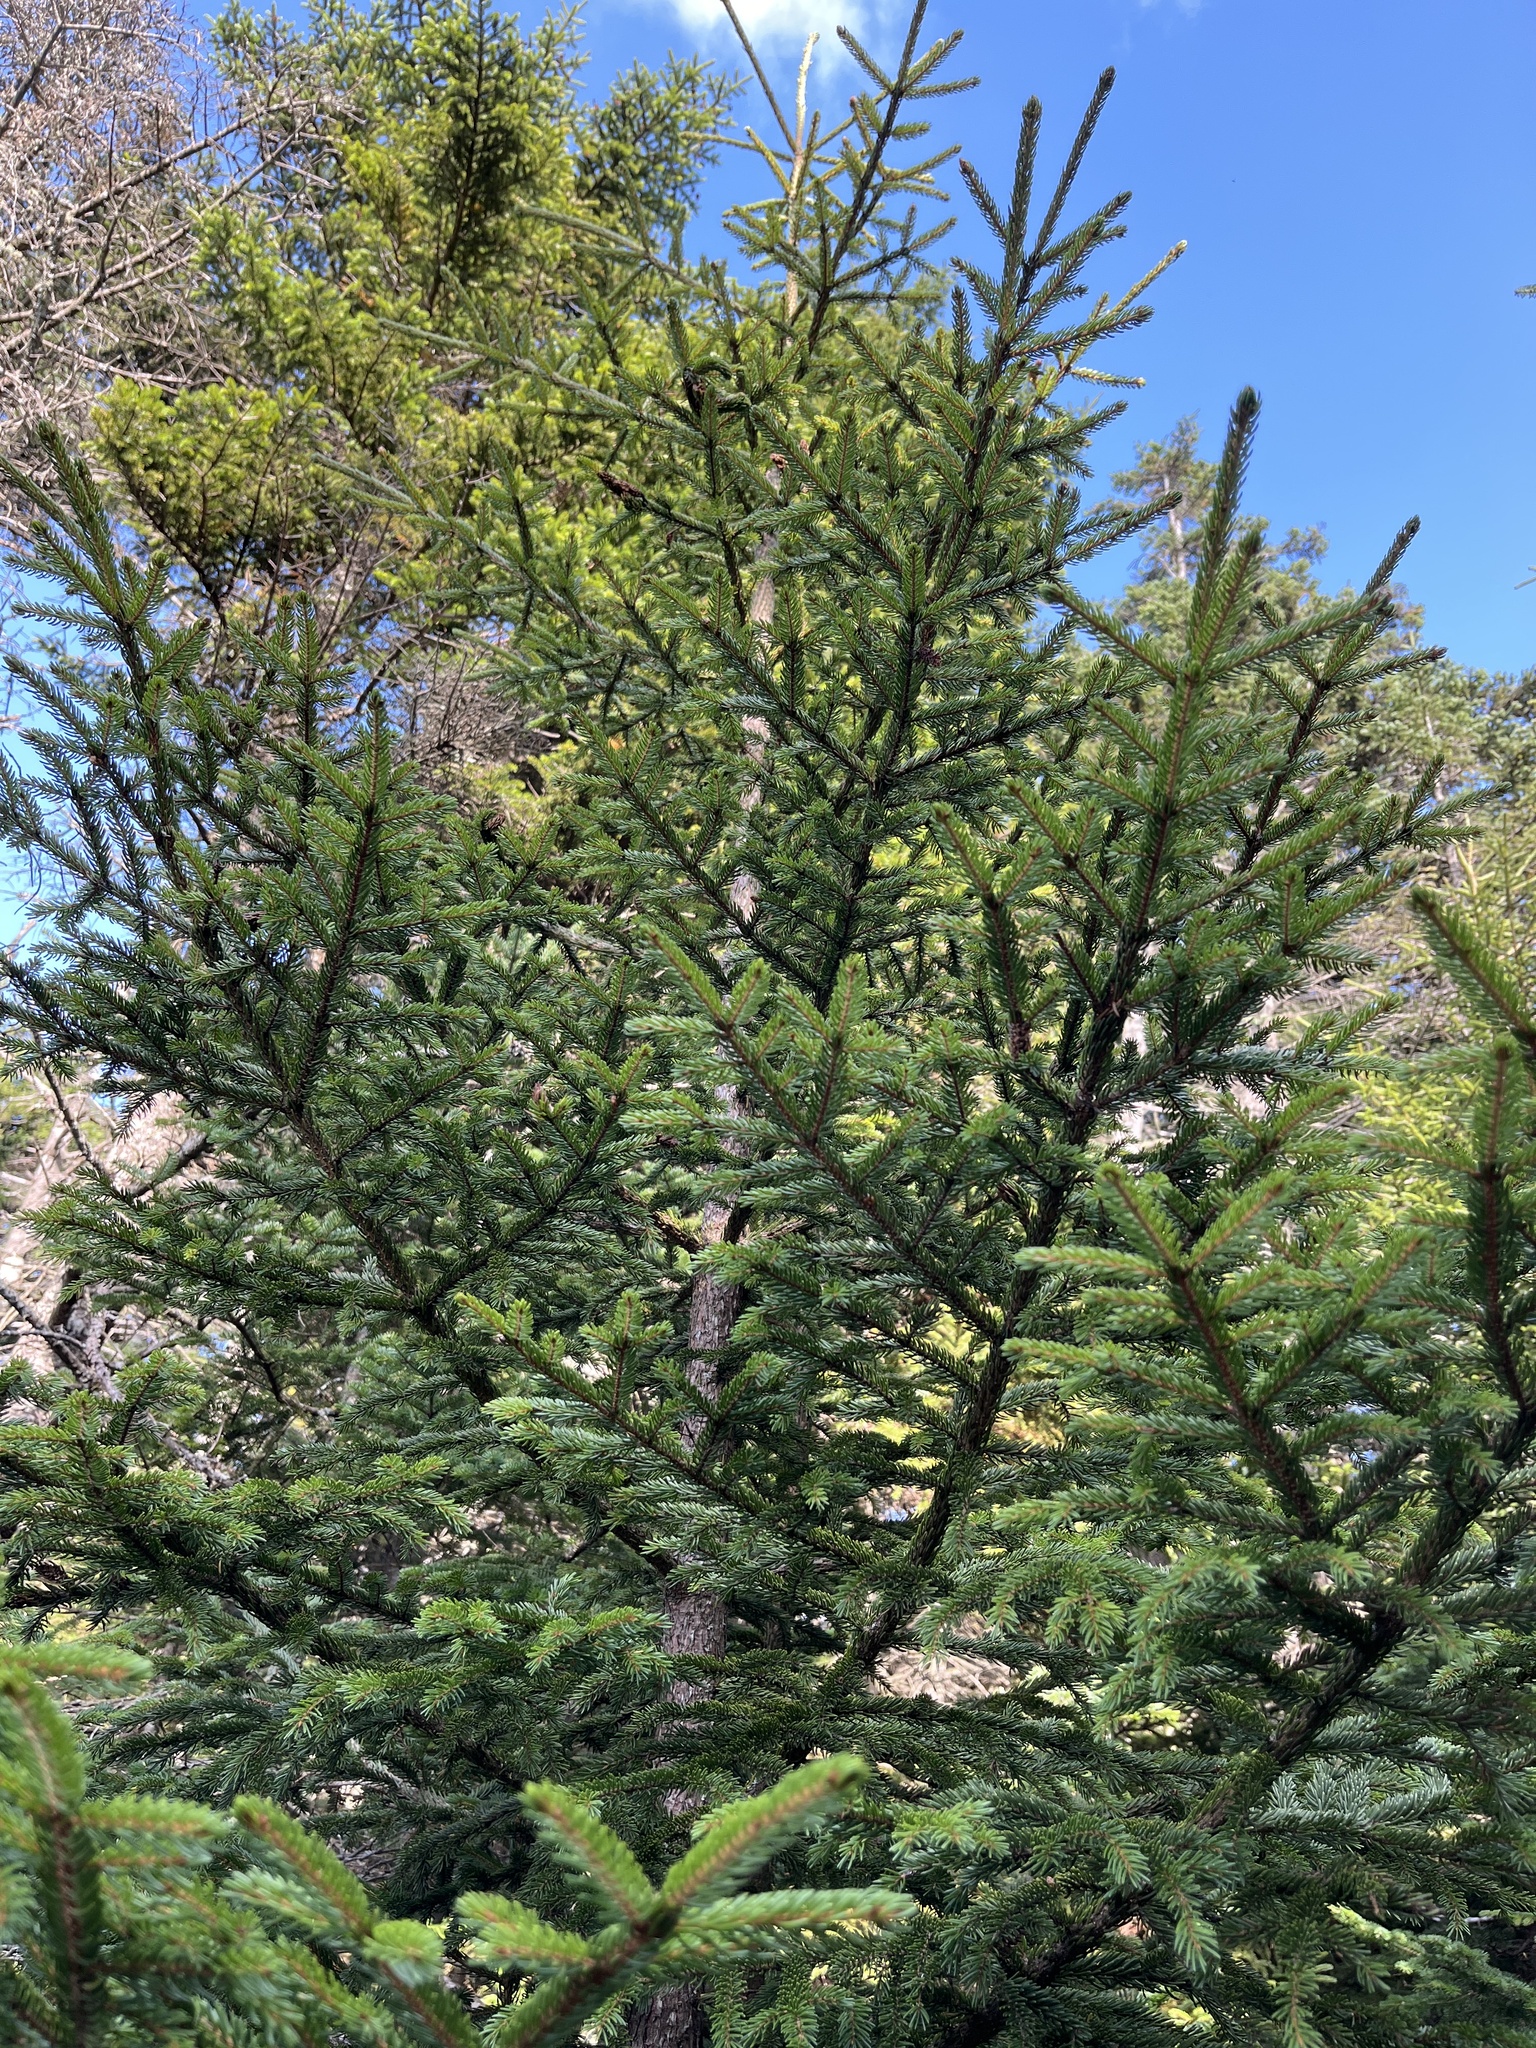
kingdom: Plantae
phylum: Tracheophyta
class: Pinopsida
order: Pinales
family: Pinaceae
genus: Picea
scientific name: Picea rubens
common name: Red spruce
